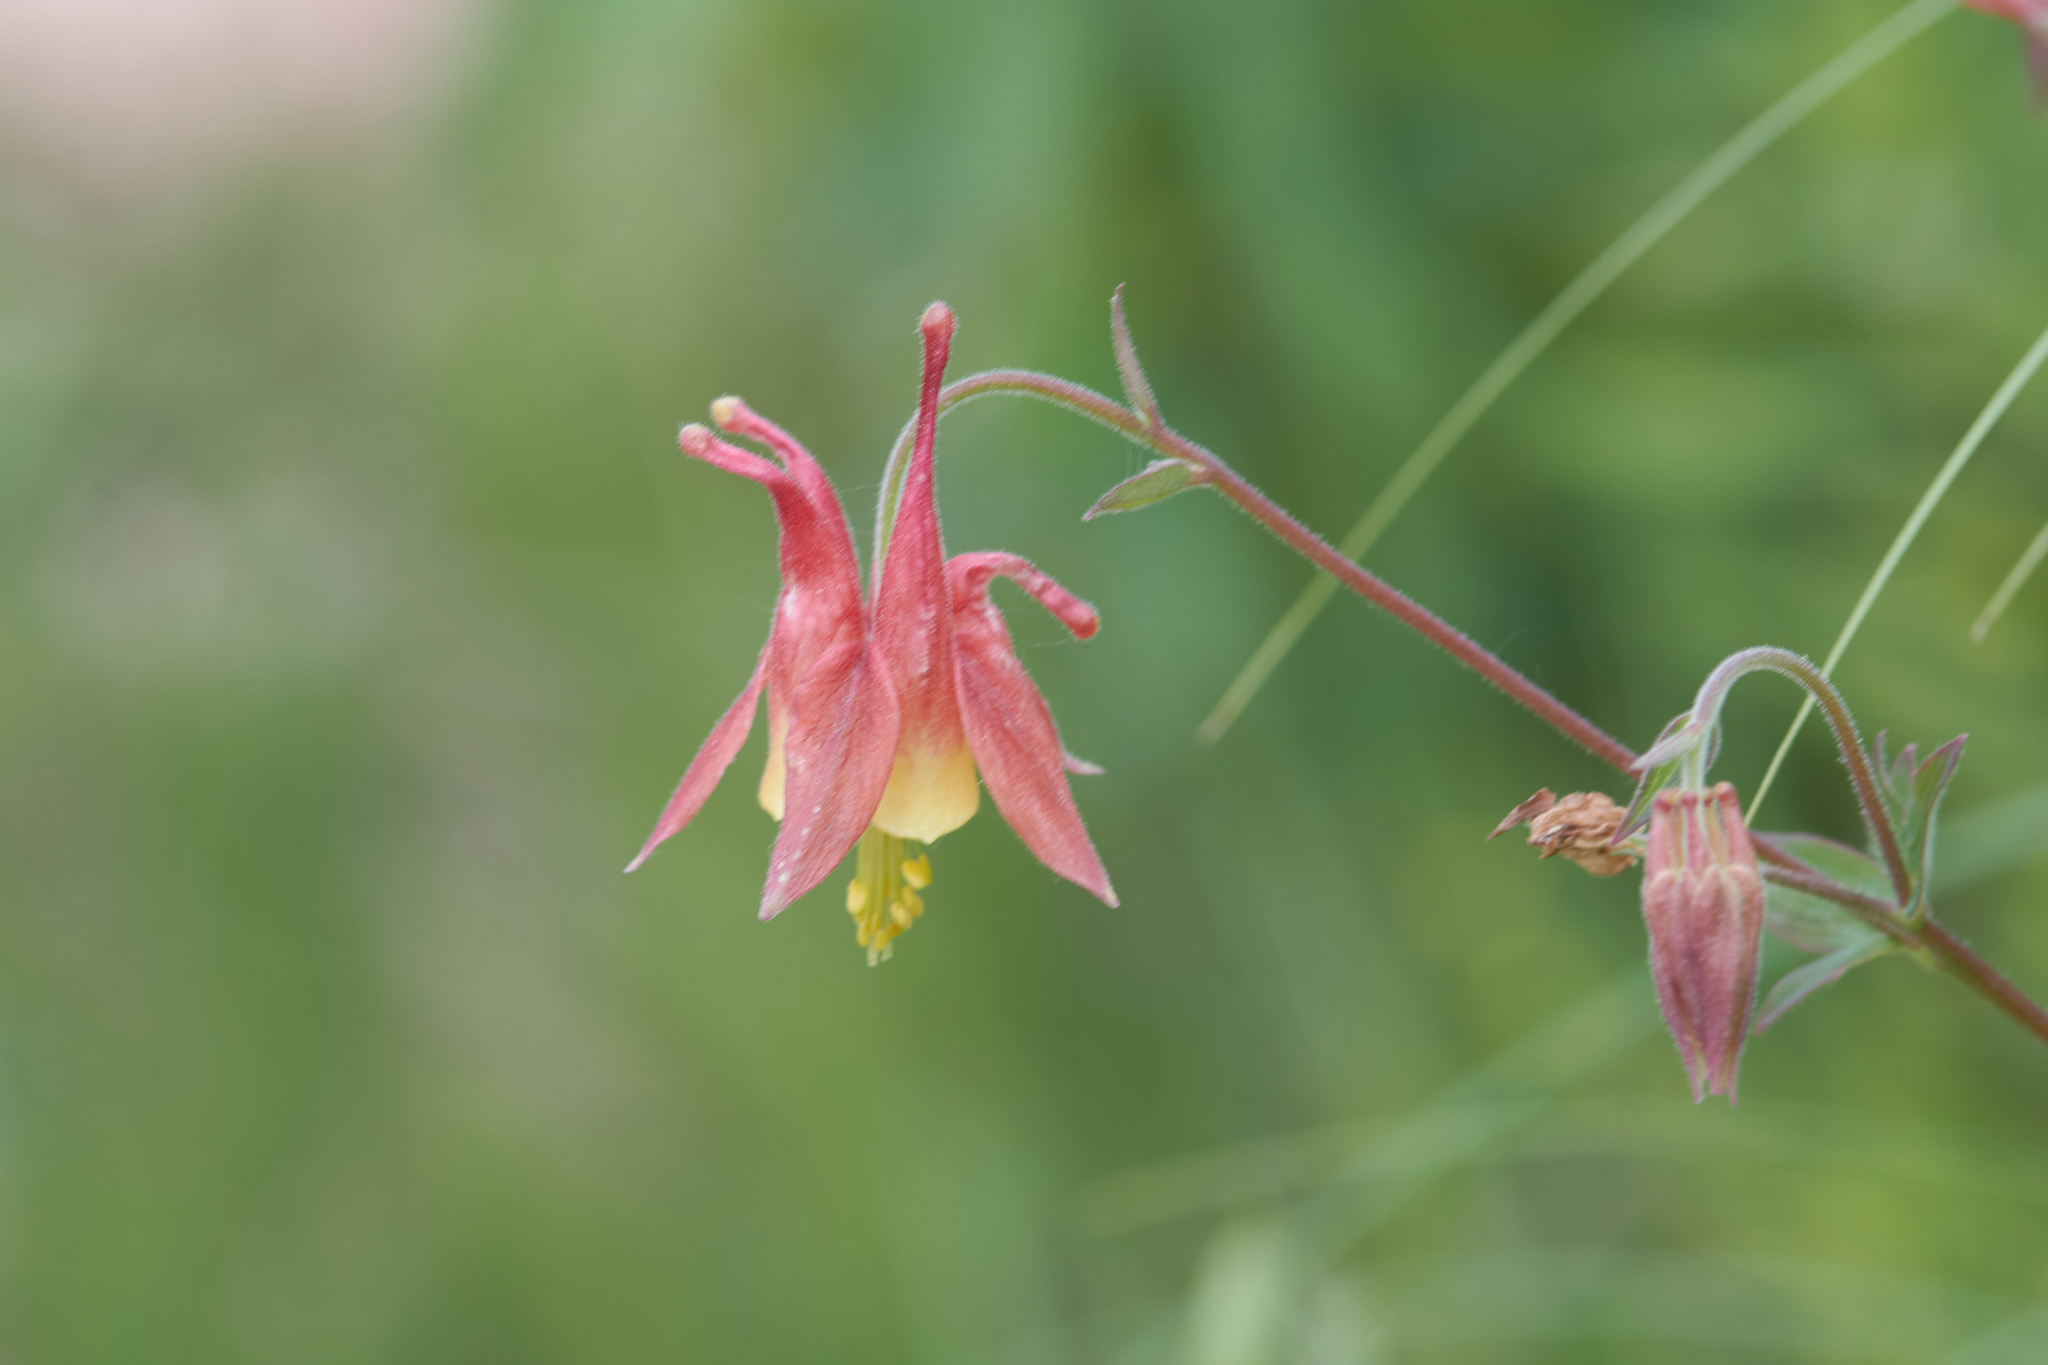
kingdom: Plantae
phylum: Tracheophyta
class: Magnoliopsida
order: Ranunculales
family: Ranunculaceae
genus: Aquilegia
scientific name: Aquilegia canadensis
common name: American columbine
